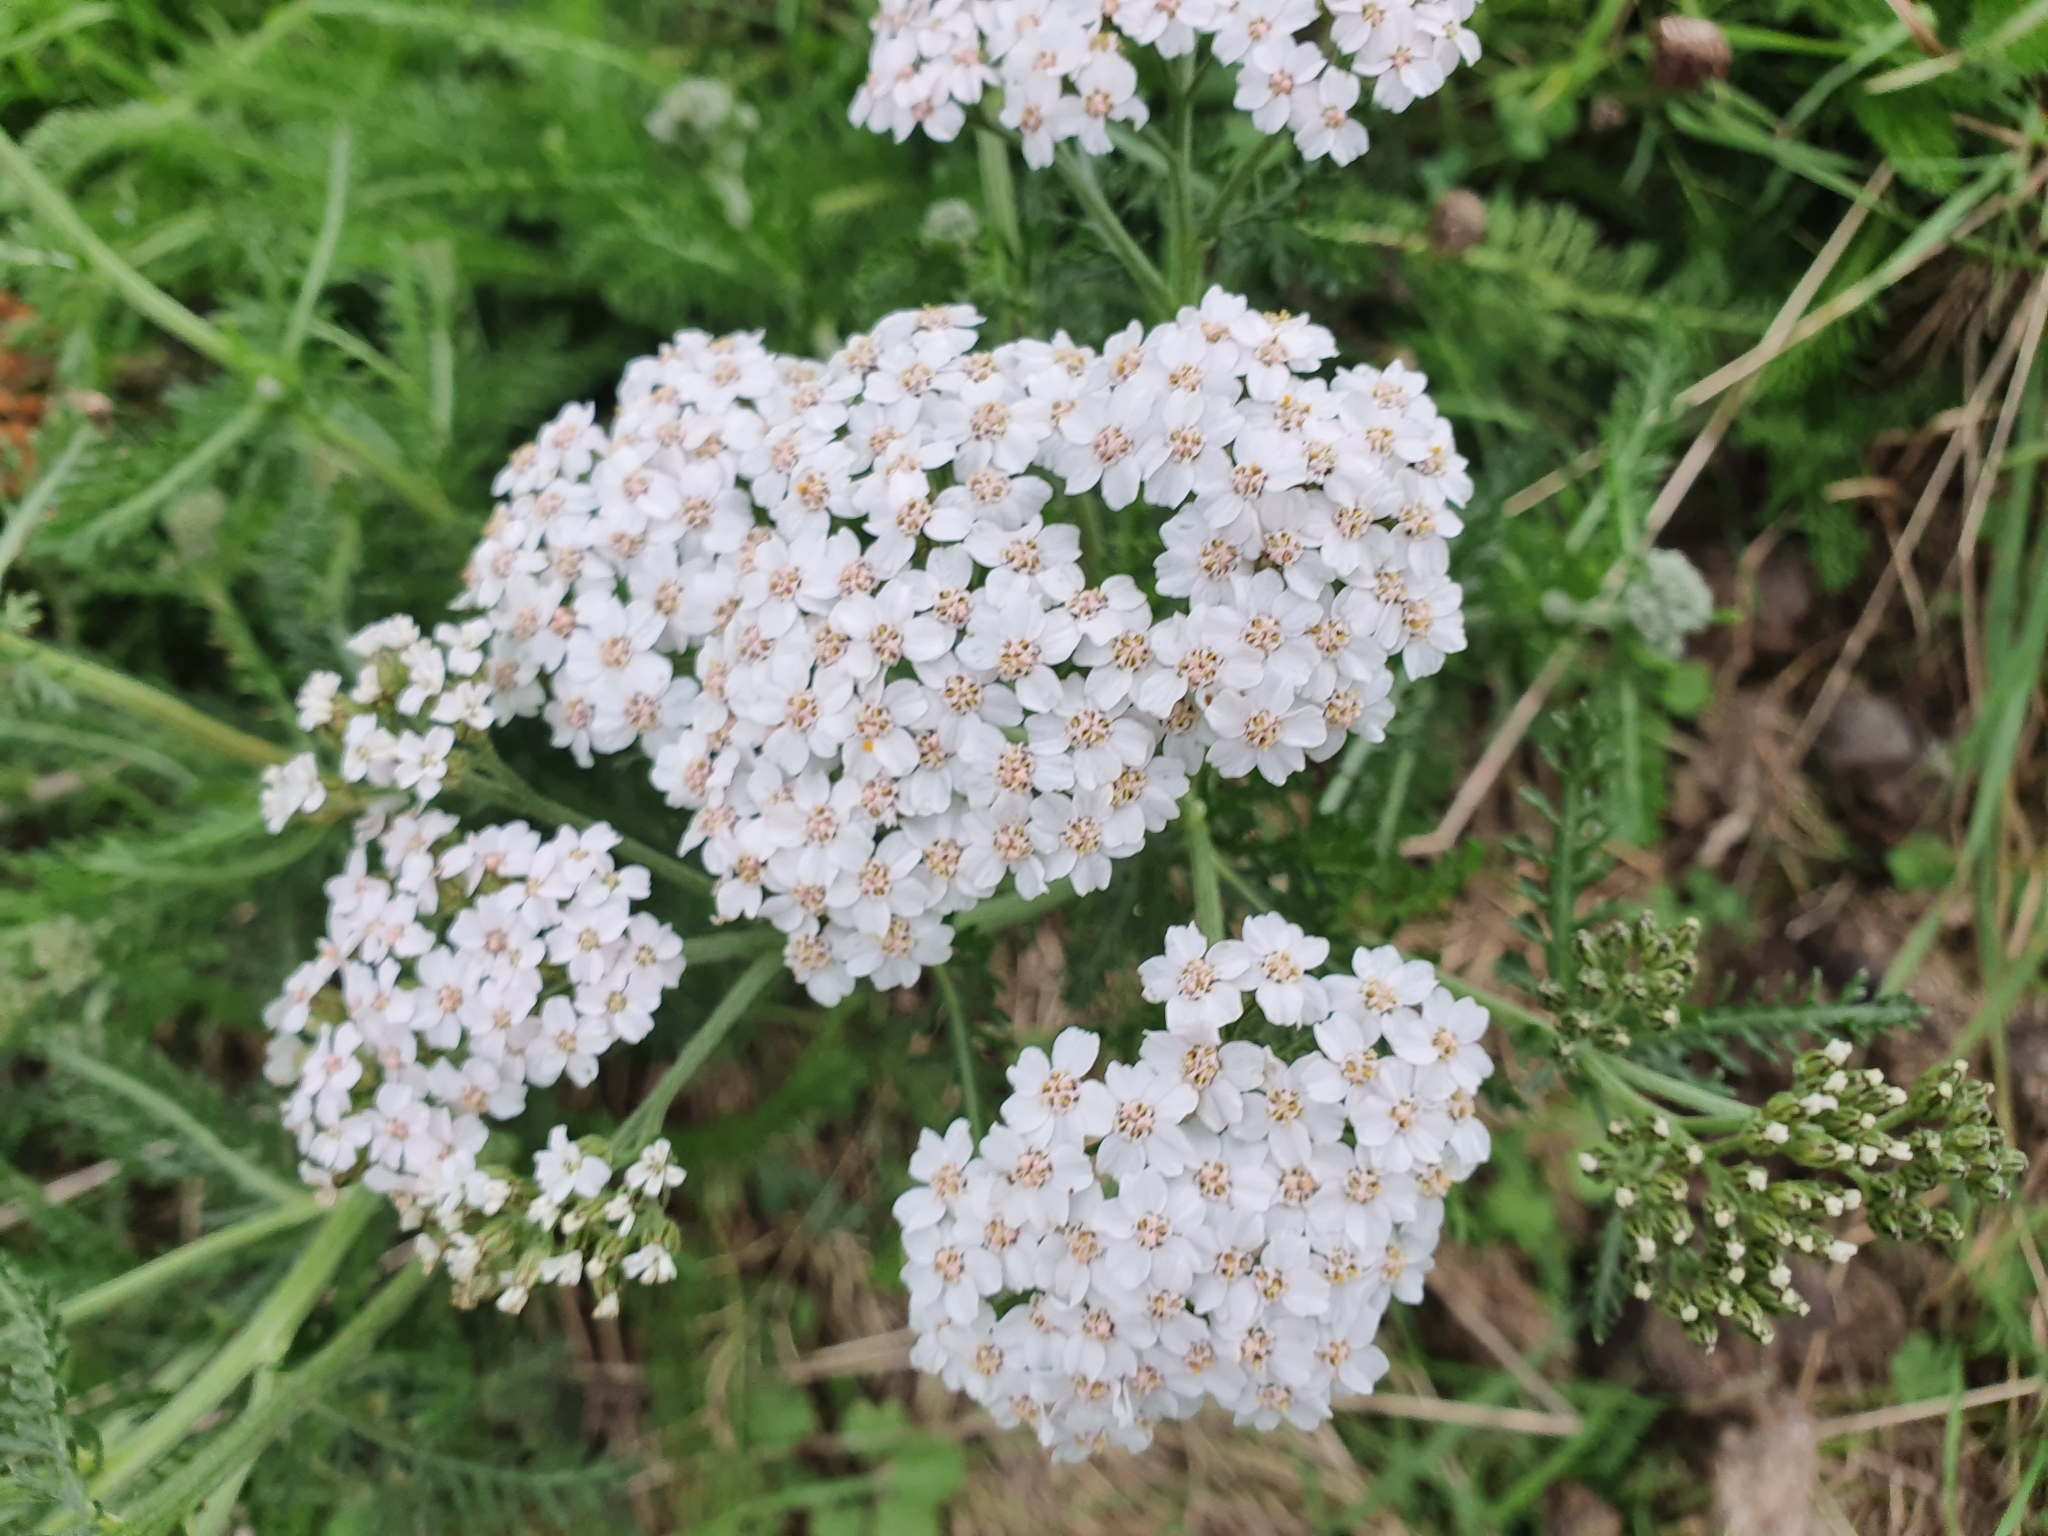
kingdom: Plantae
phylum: Tracheophyta
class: Magnoliopsida
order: Asterales
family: Asteraceae
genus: Achillea
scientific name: Achillea millefolium
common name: Yarrow
